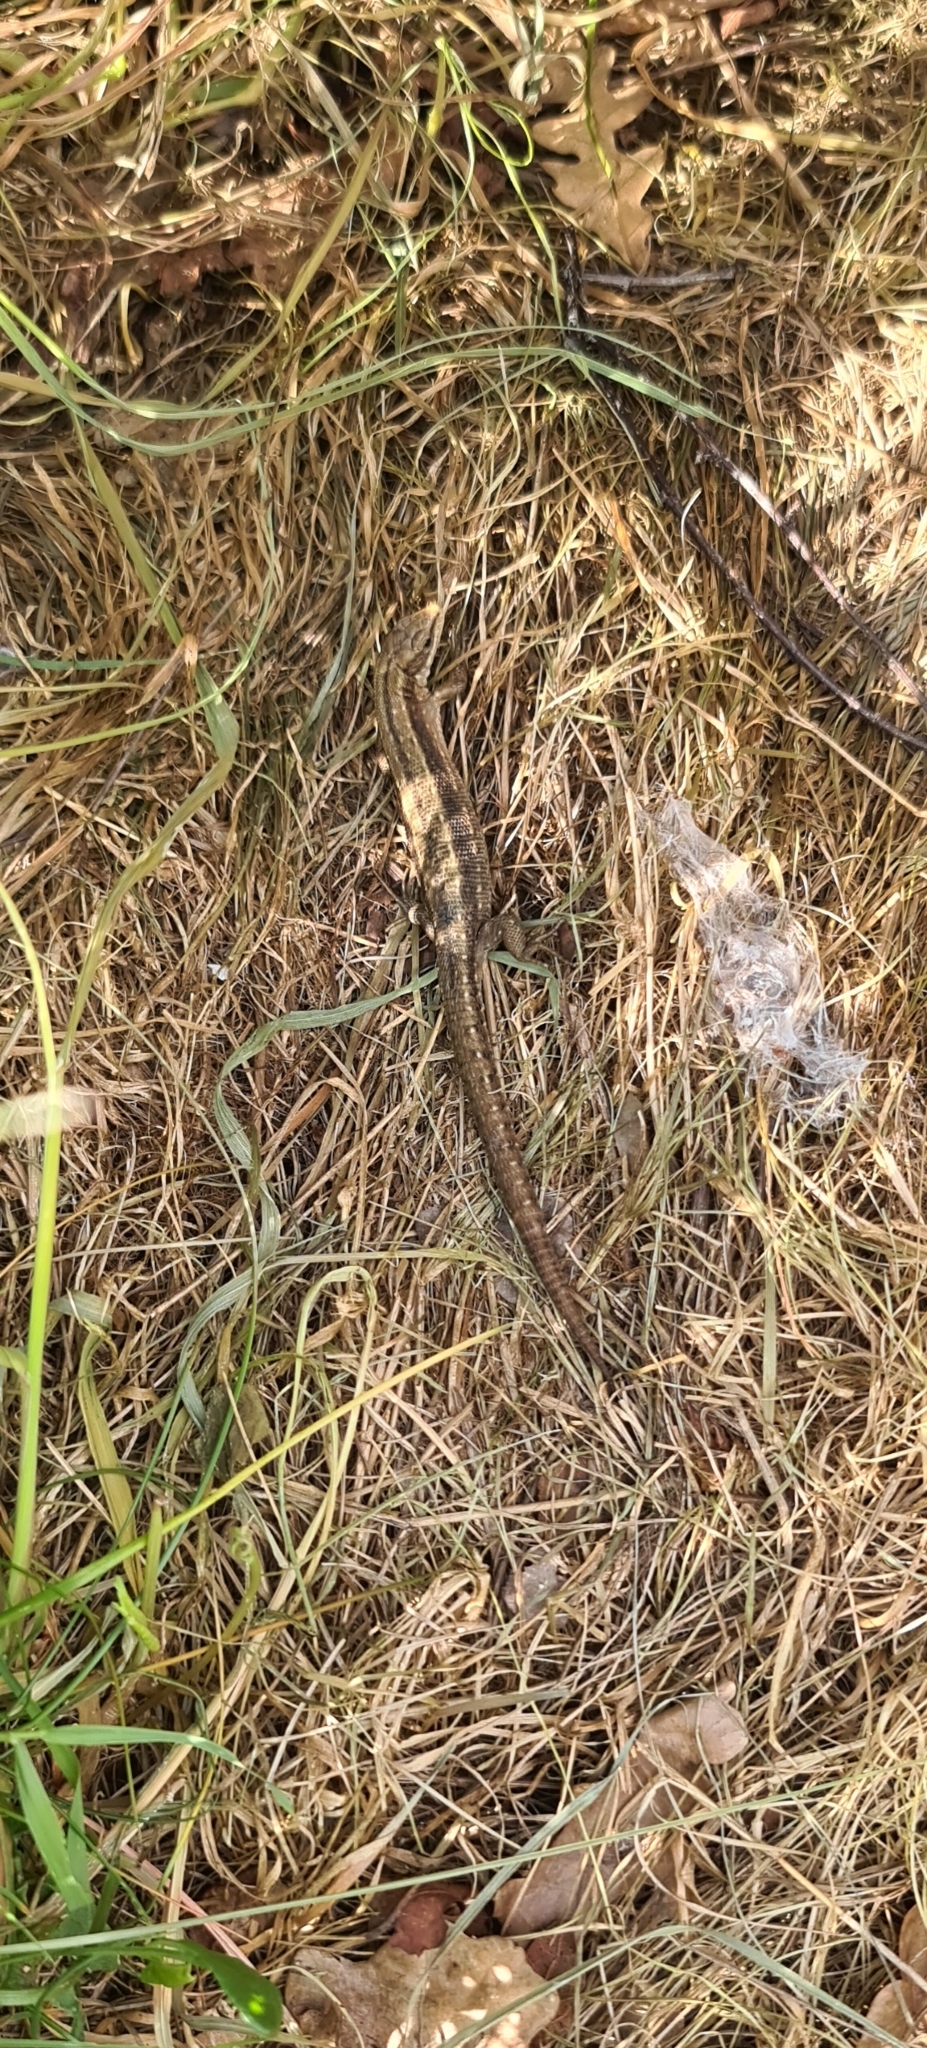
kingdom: Animalia
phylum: Chordata
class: Squamata
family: Lacertidae
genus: Zootoca
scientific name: Zootoca vivipara
